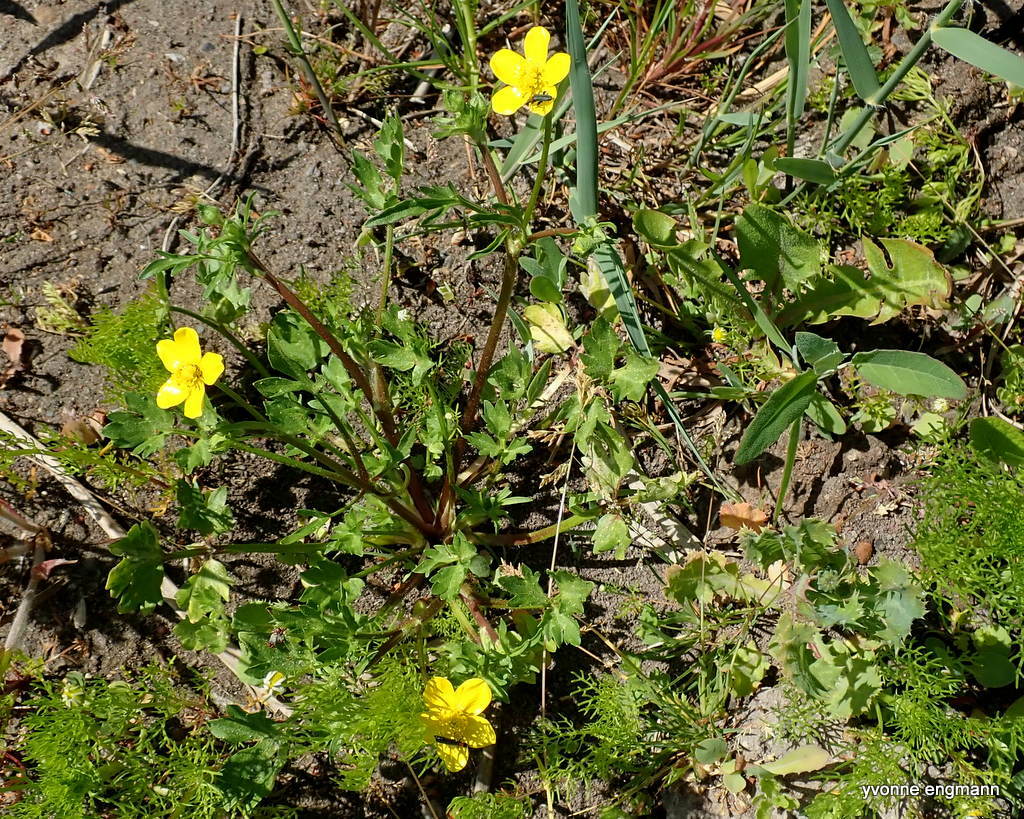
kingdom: Plantae
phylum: Tracheophyta
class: Magnoliopsida
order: Ranunculales
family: Ranunculaceae
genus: Ranunculus
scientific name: Ranunculus bulbosus
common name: Bulbous buttercup
